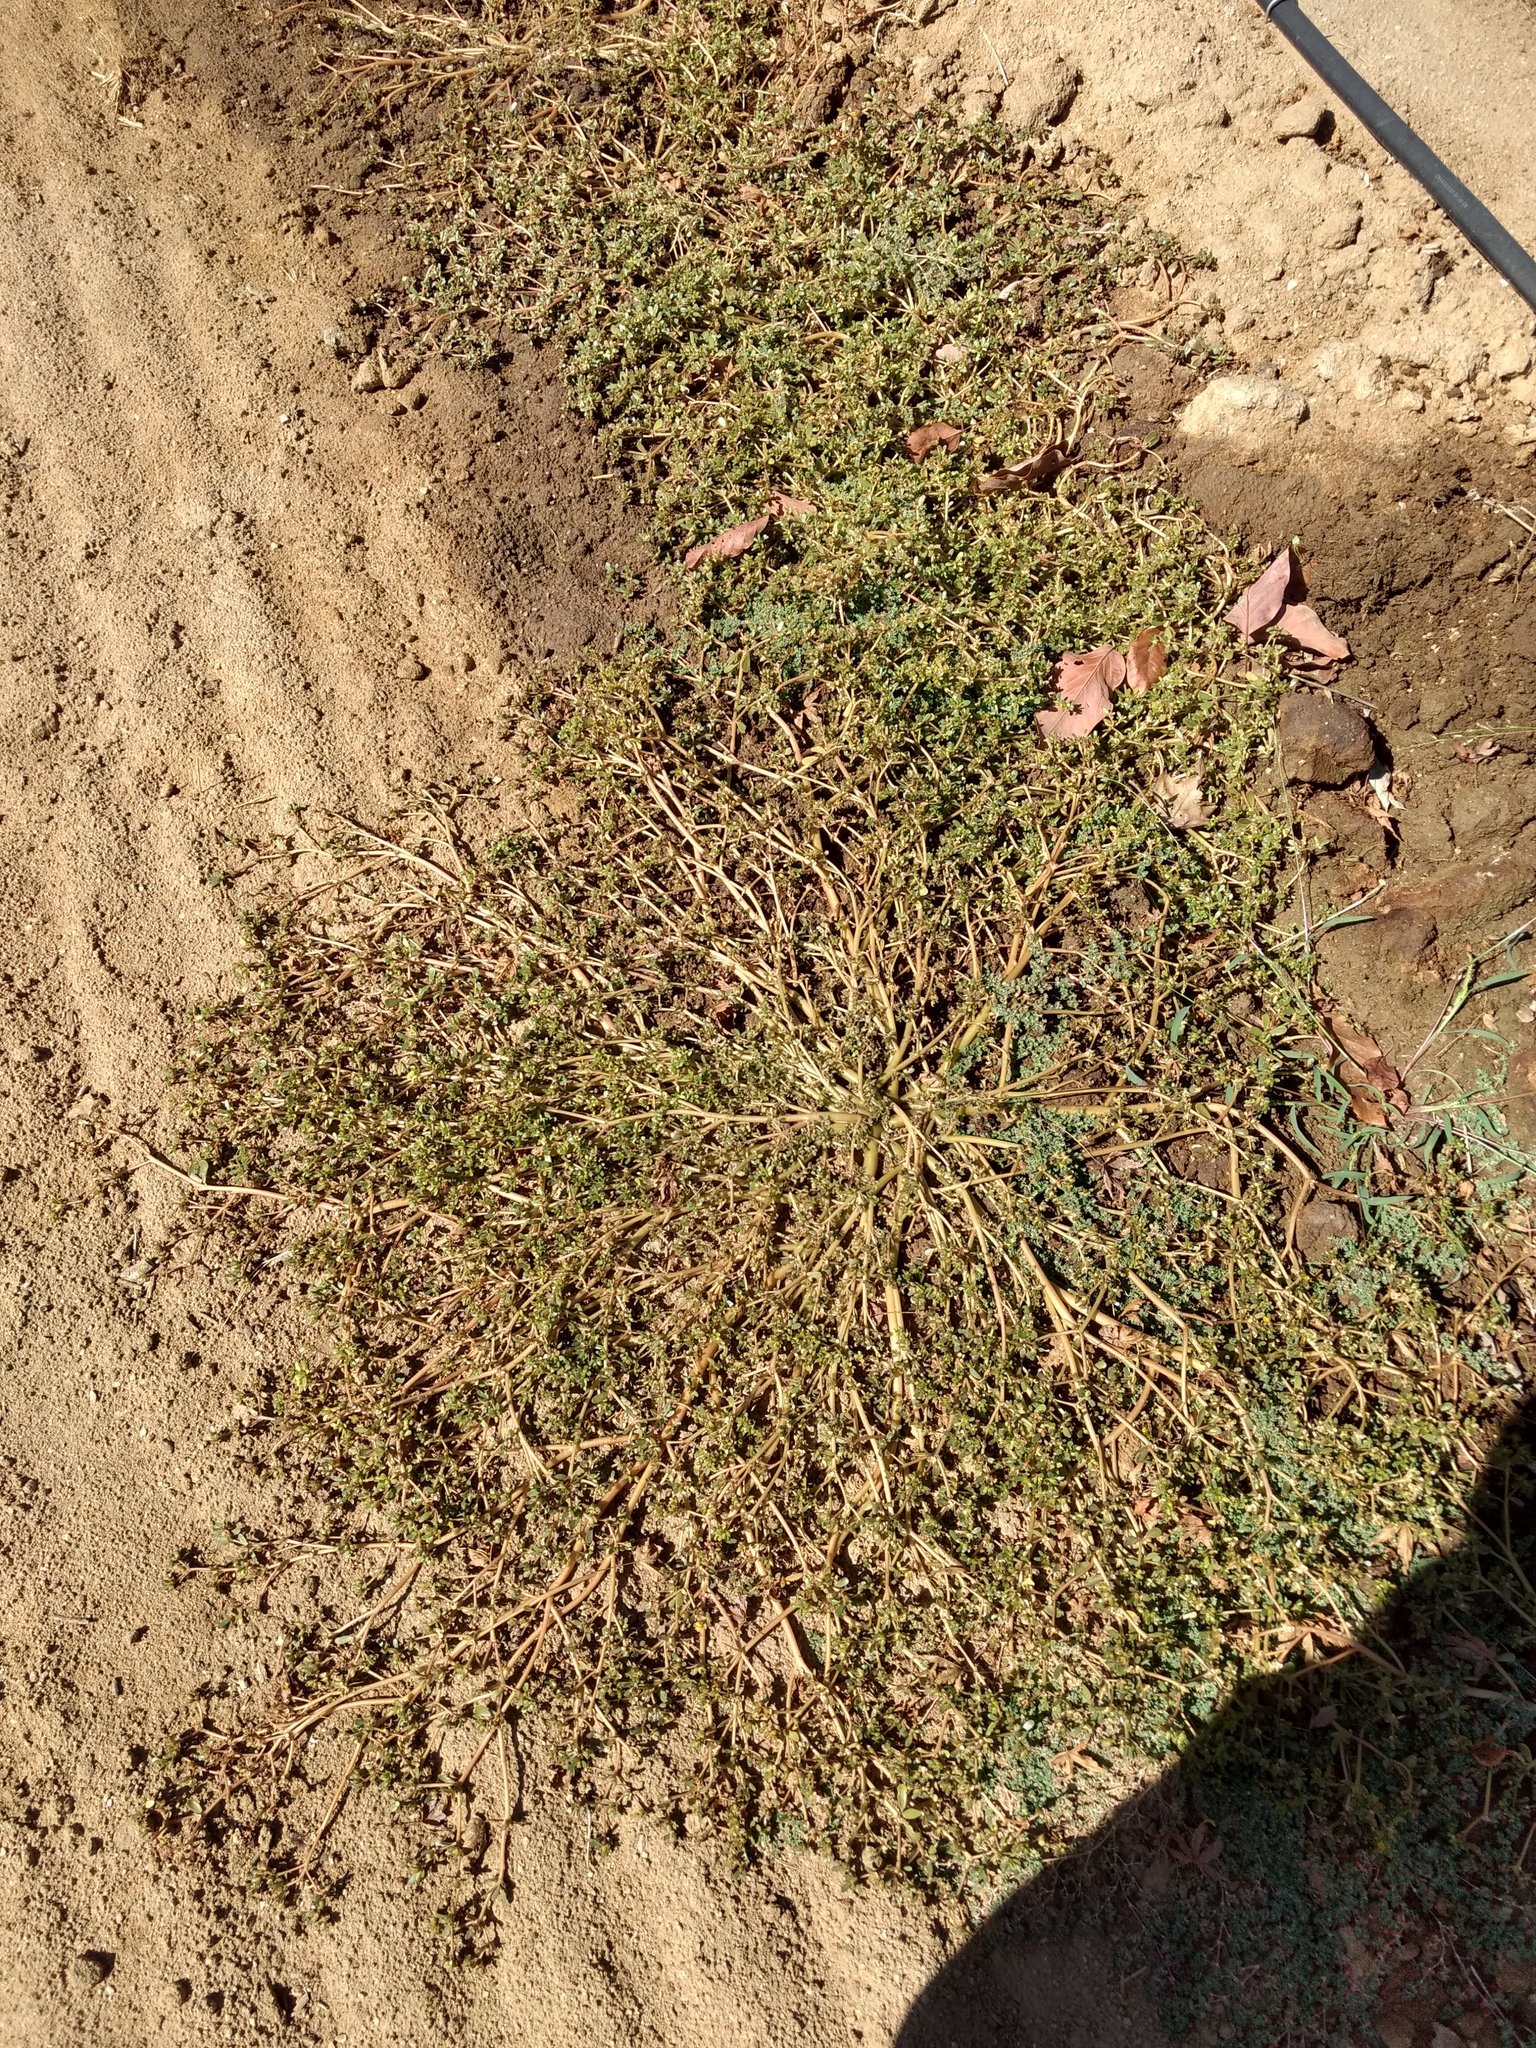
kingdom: Plantae
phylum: Tracheophyta
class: Magnoliopsida
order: Caryophyllales
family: Portulacaceae
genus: Portulaca
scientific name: Portulaca oleracea
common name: Common purslane
